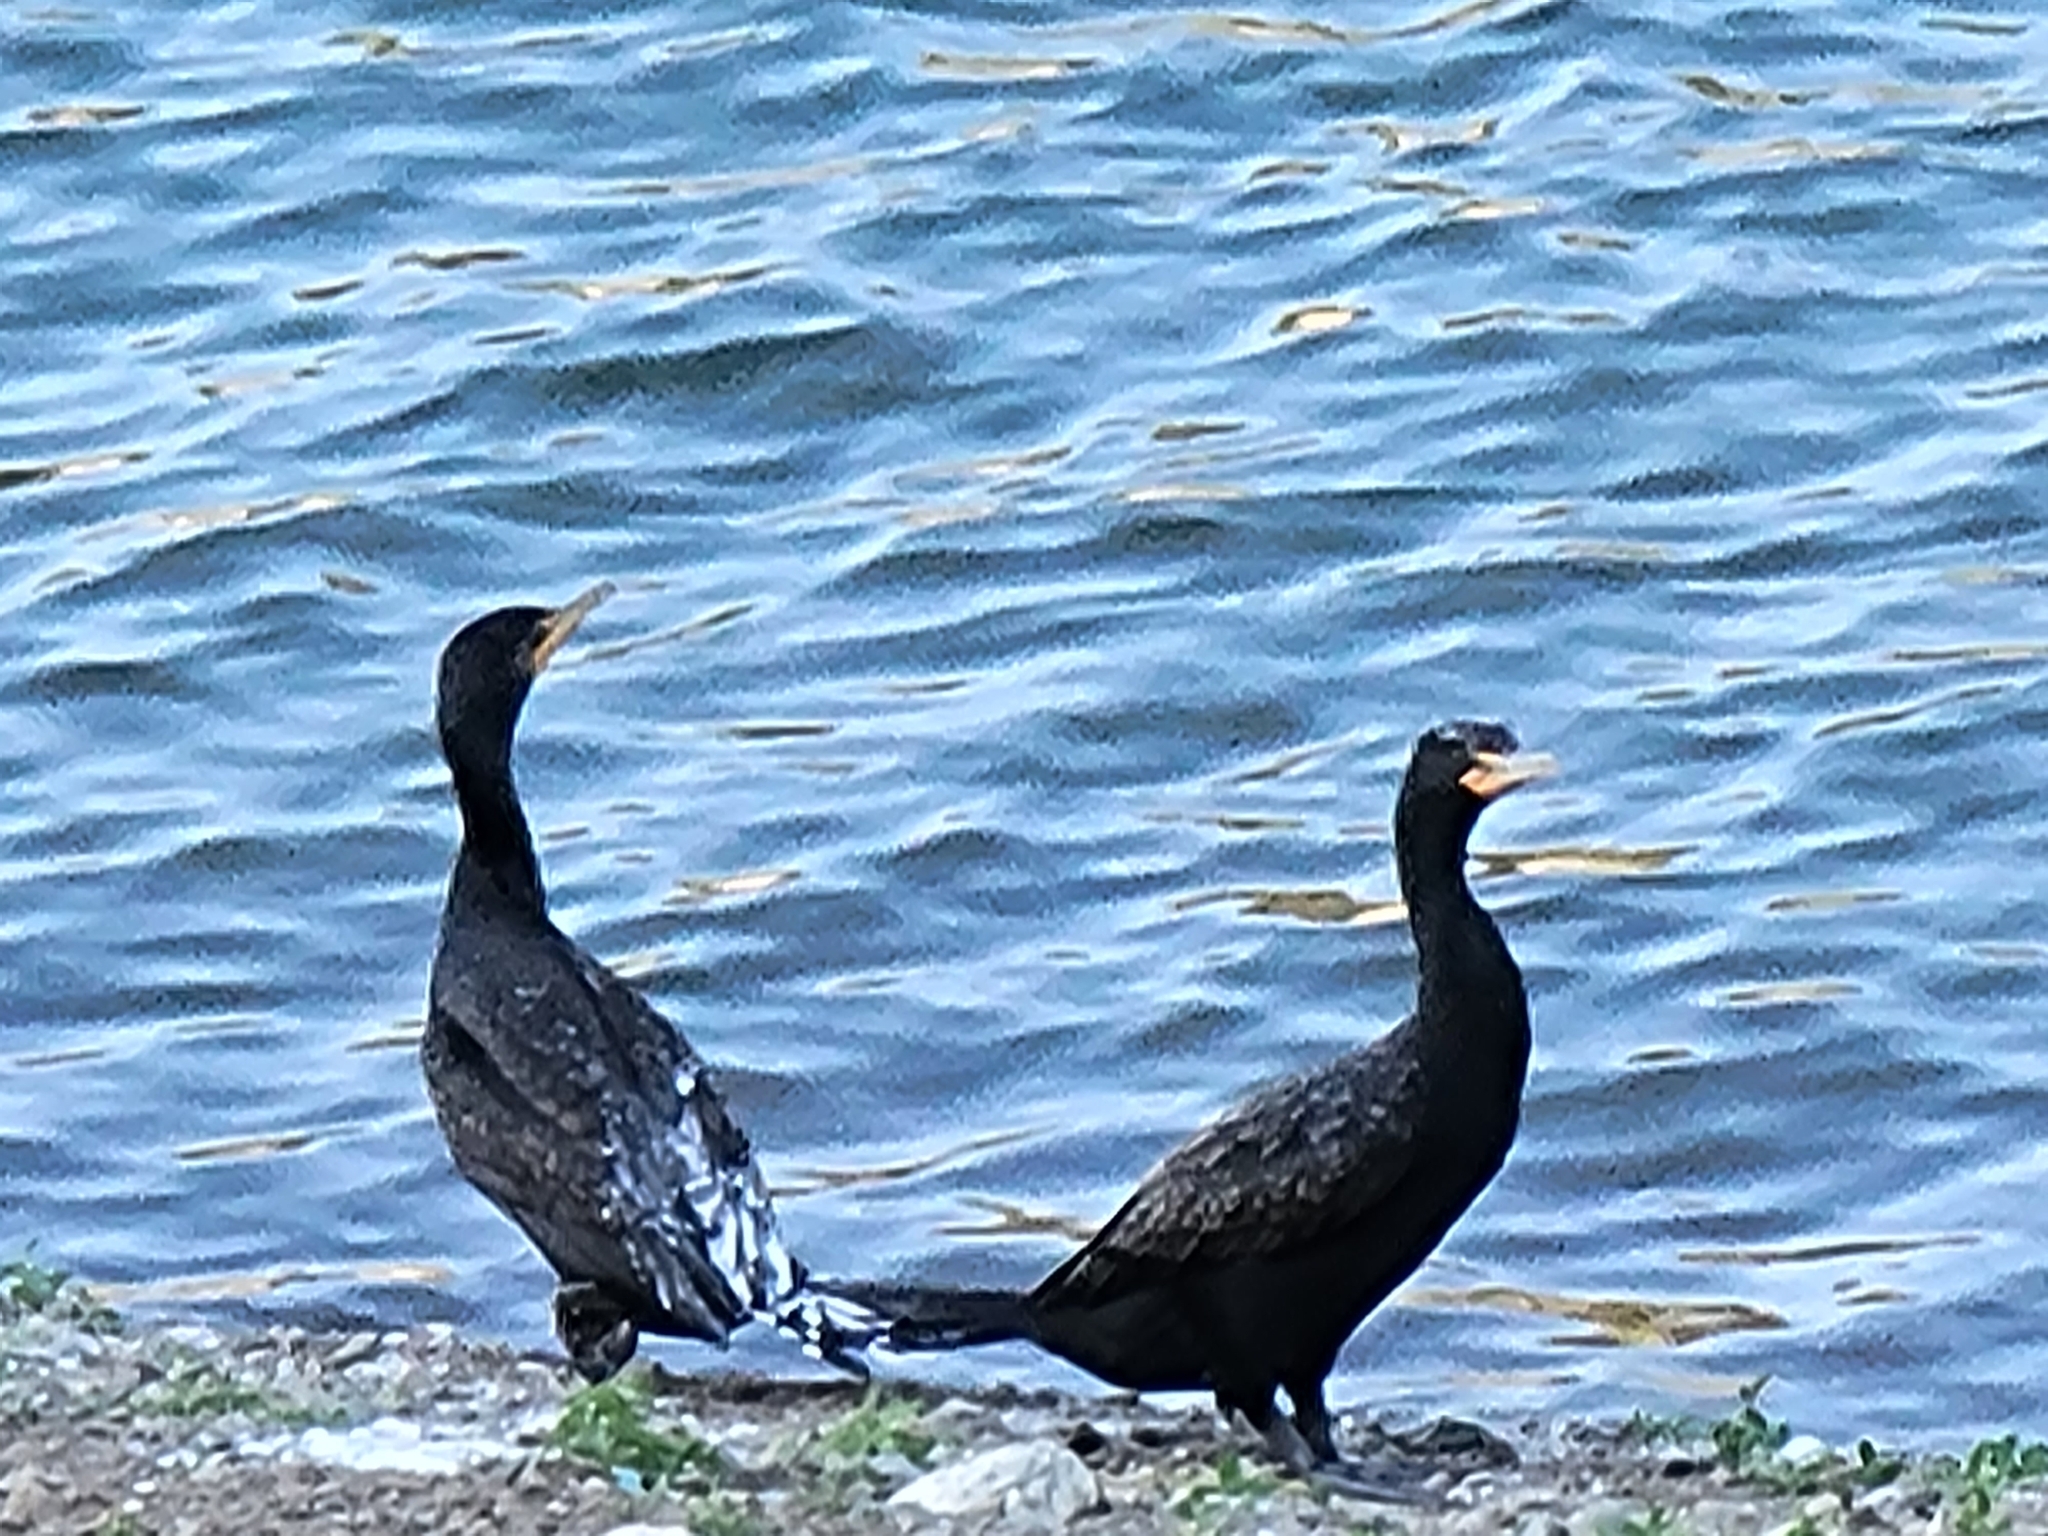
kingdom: Animalia
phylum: Chordata
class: Aves
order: Suliformes
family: Phalacrocoracidae
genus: Phalacrocorax
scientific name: Phalacrocorax auritus
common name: Double-crested cormorant
